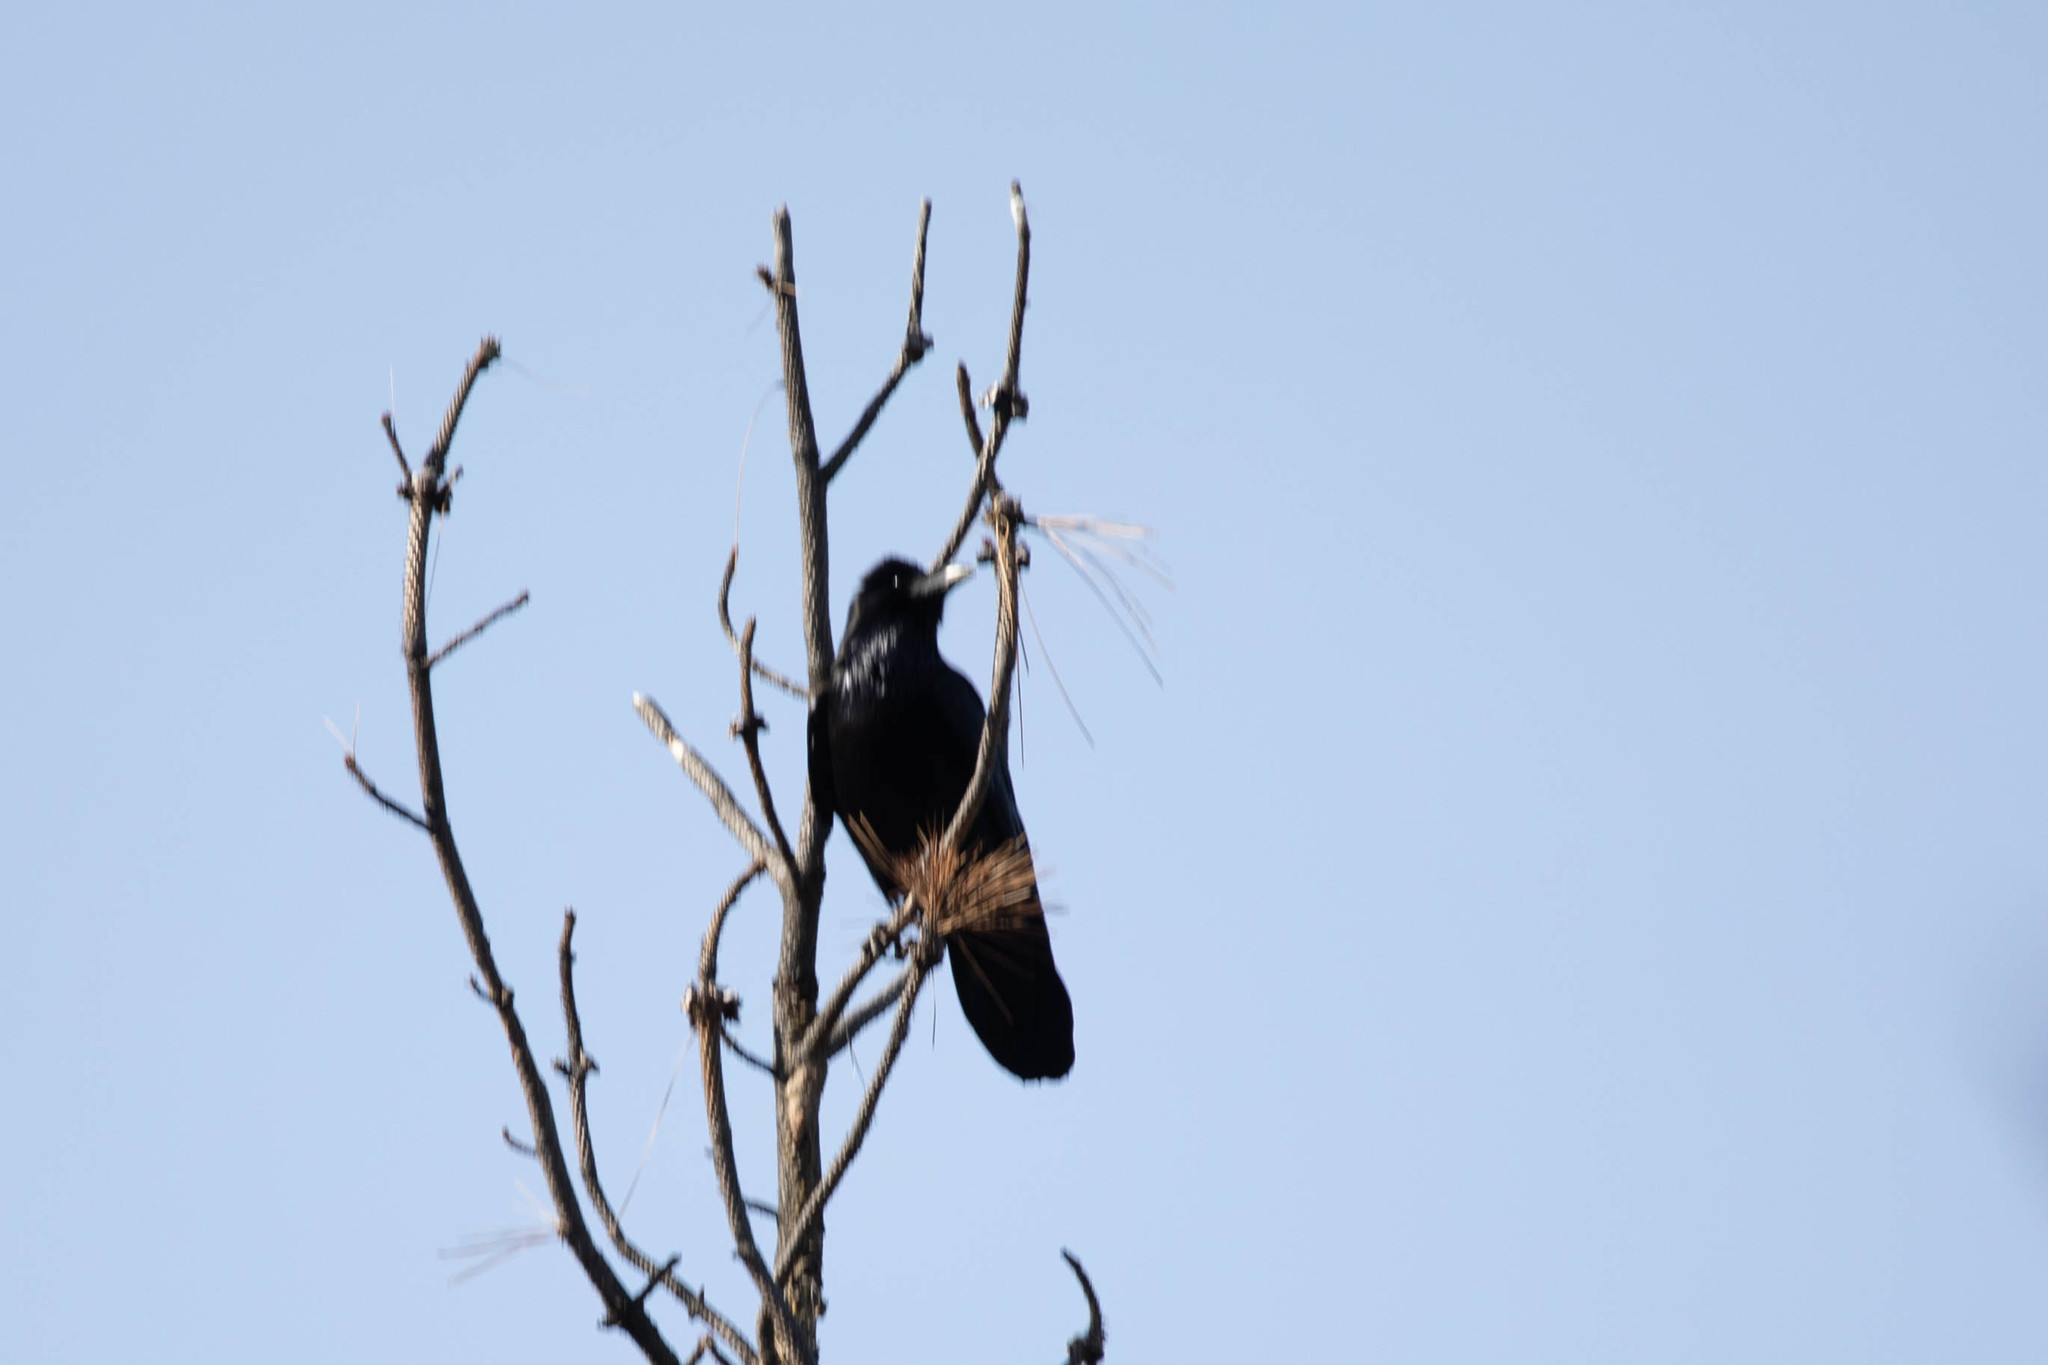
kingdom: Animalia
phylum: Chordata
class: Aves
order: Passeriformes
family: Corvidae
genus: Corvus
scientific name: Corvus corax
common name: Common raven
